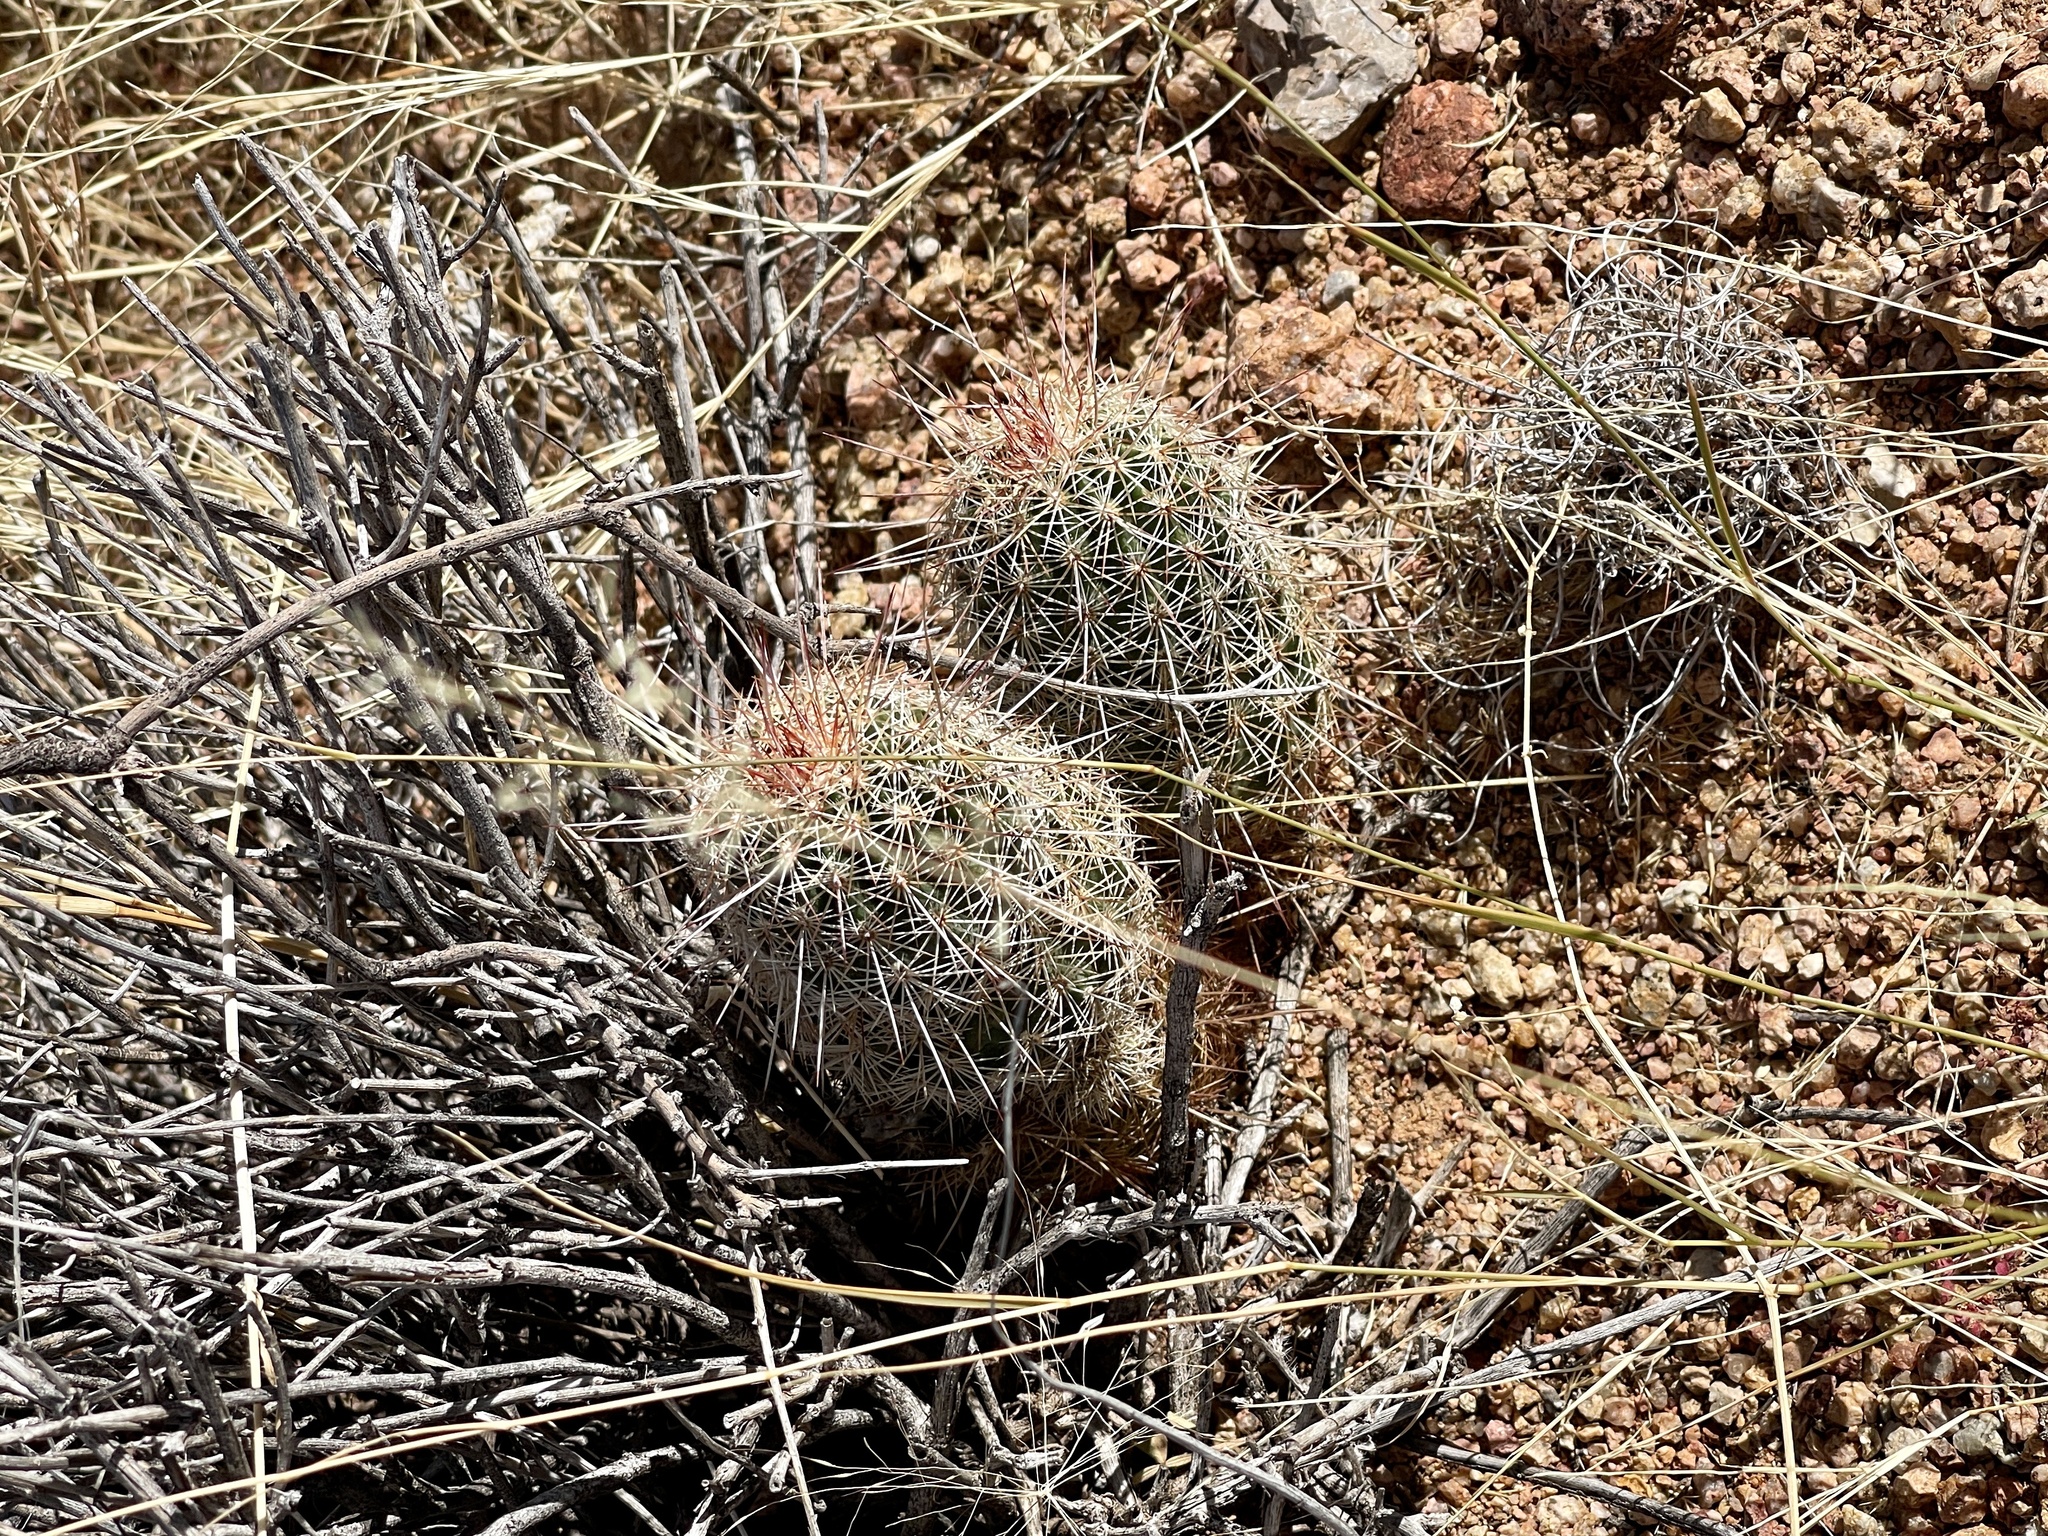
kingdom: Plantae
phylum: Tracheophyta
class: Magnoliopsida
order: Caryophyllales
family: Cactaceae
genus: Echinocereus
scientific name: Echinocereus viridiflorus
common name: Nylon hedgehog cactus
